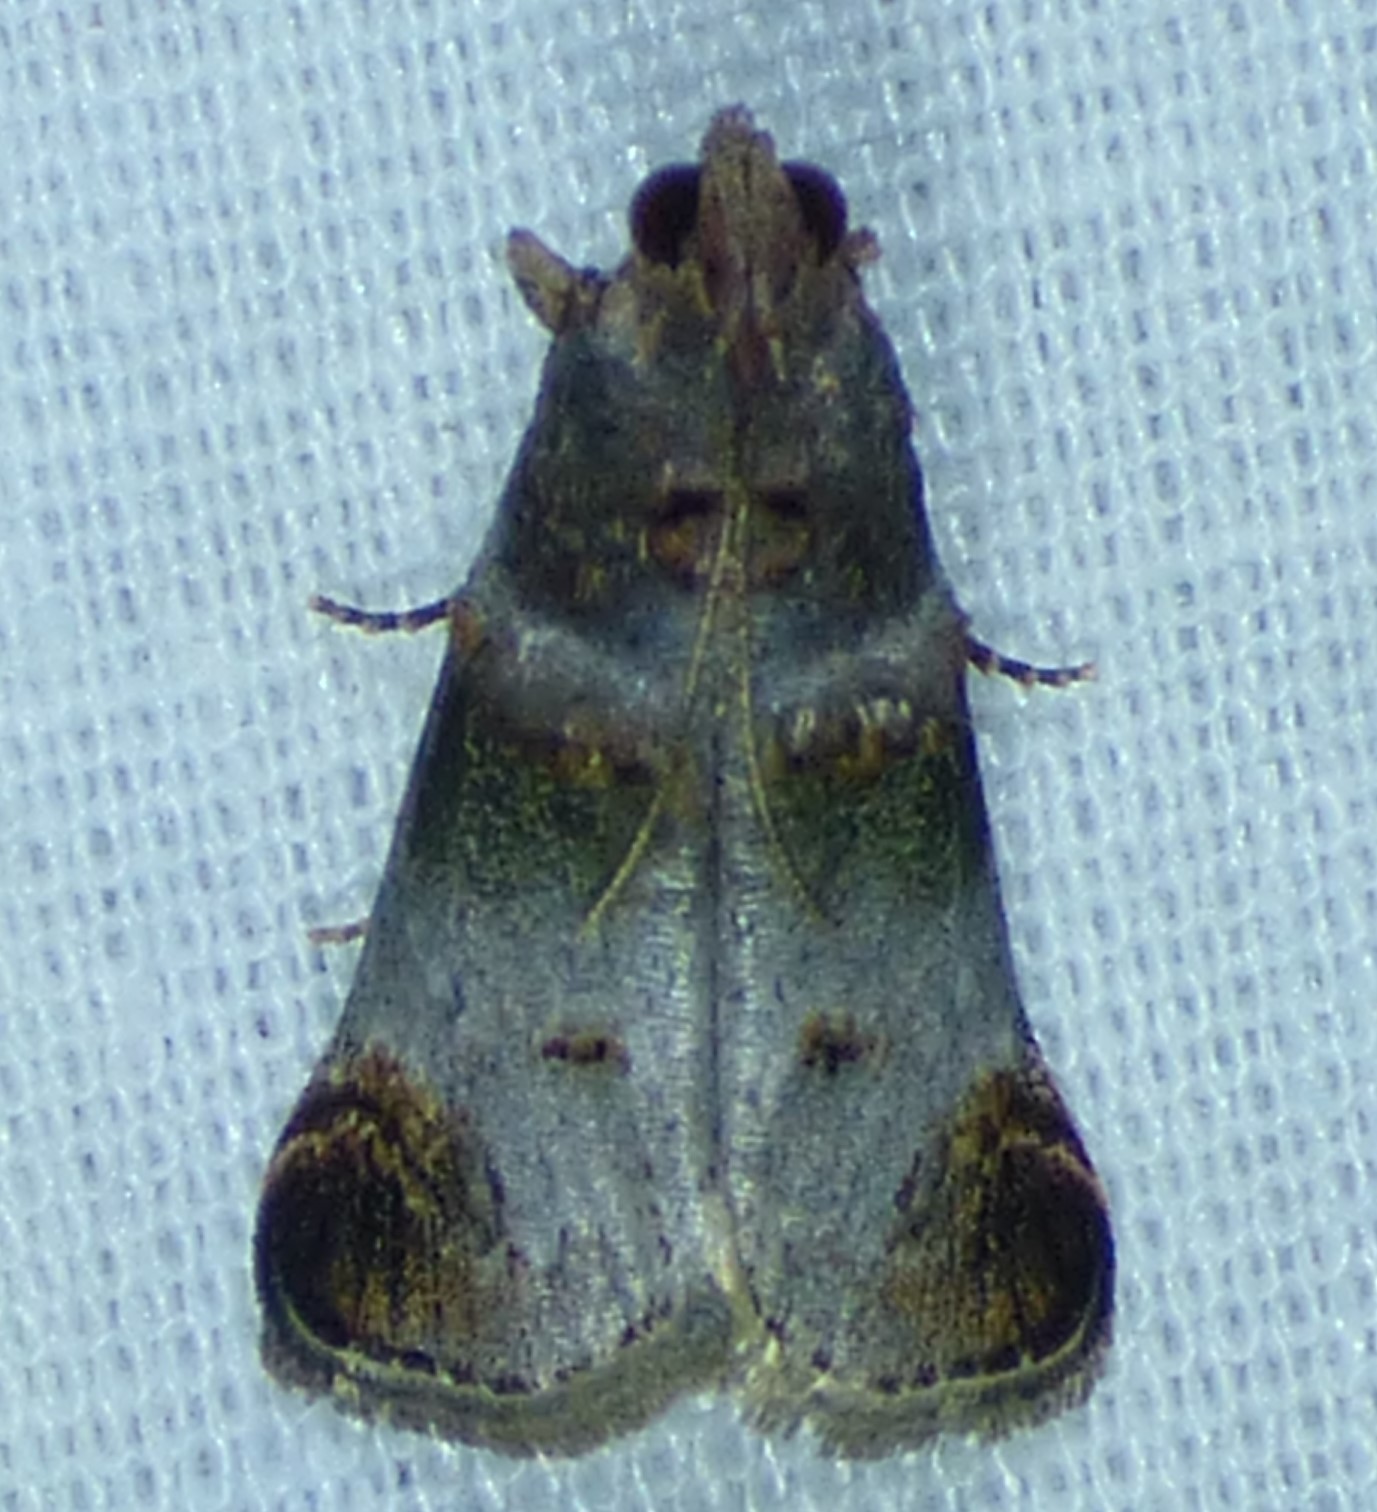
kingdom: Animalia
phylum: Arthropoda
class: Insecta
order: Lepidoptera
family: Pyralidae
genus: Oneida
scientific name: Oneida lunulalis
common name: Orange-tufted oneida moth
